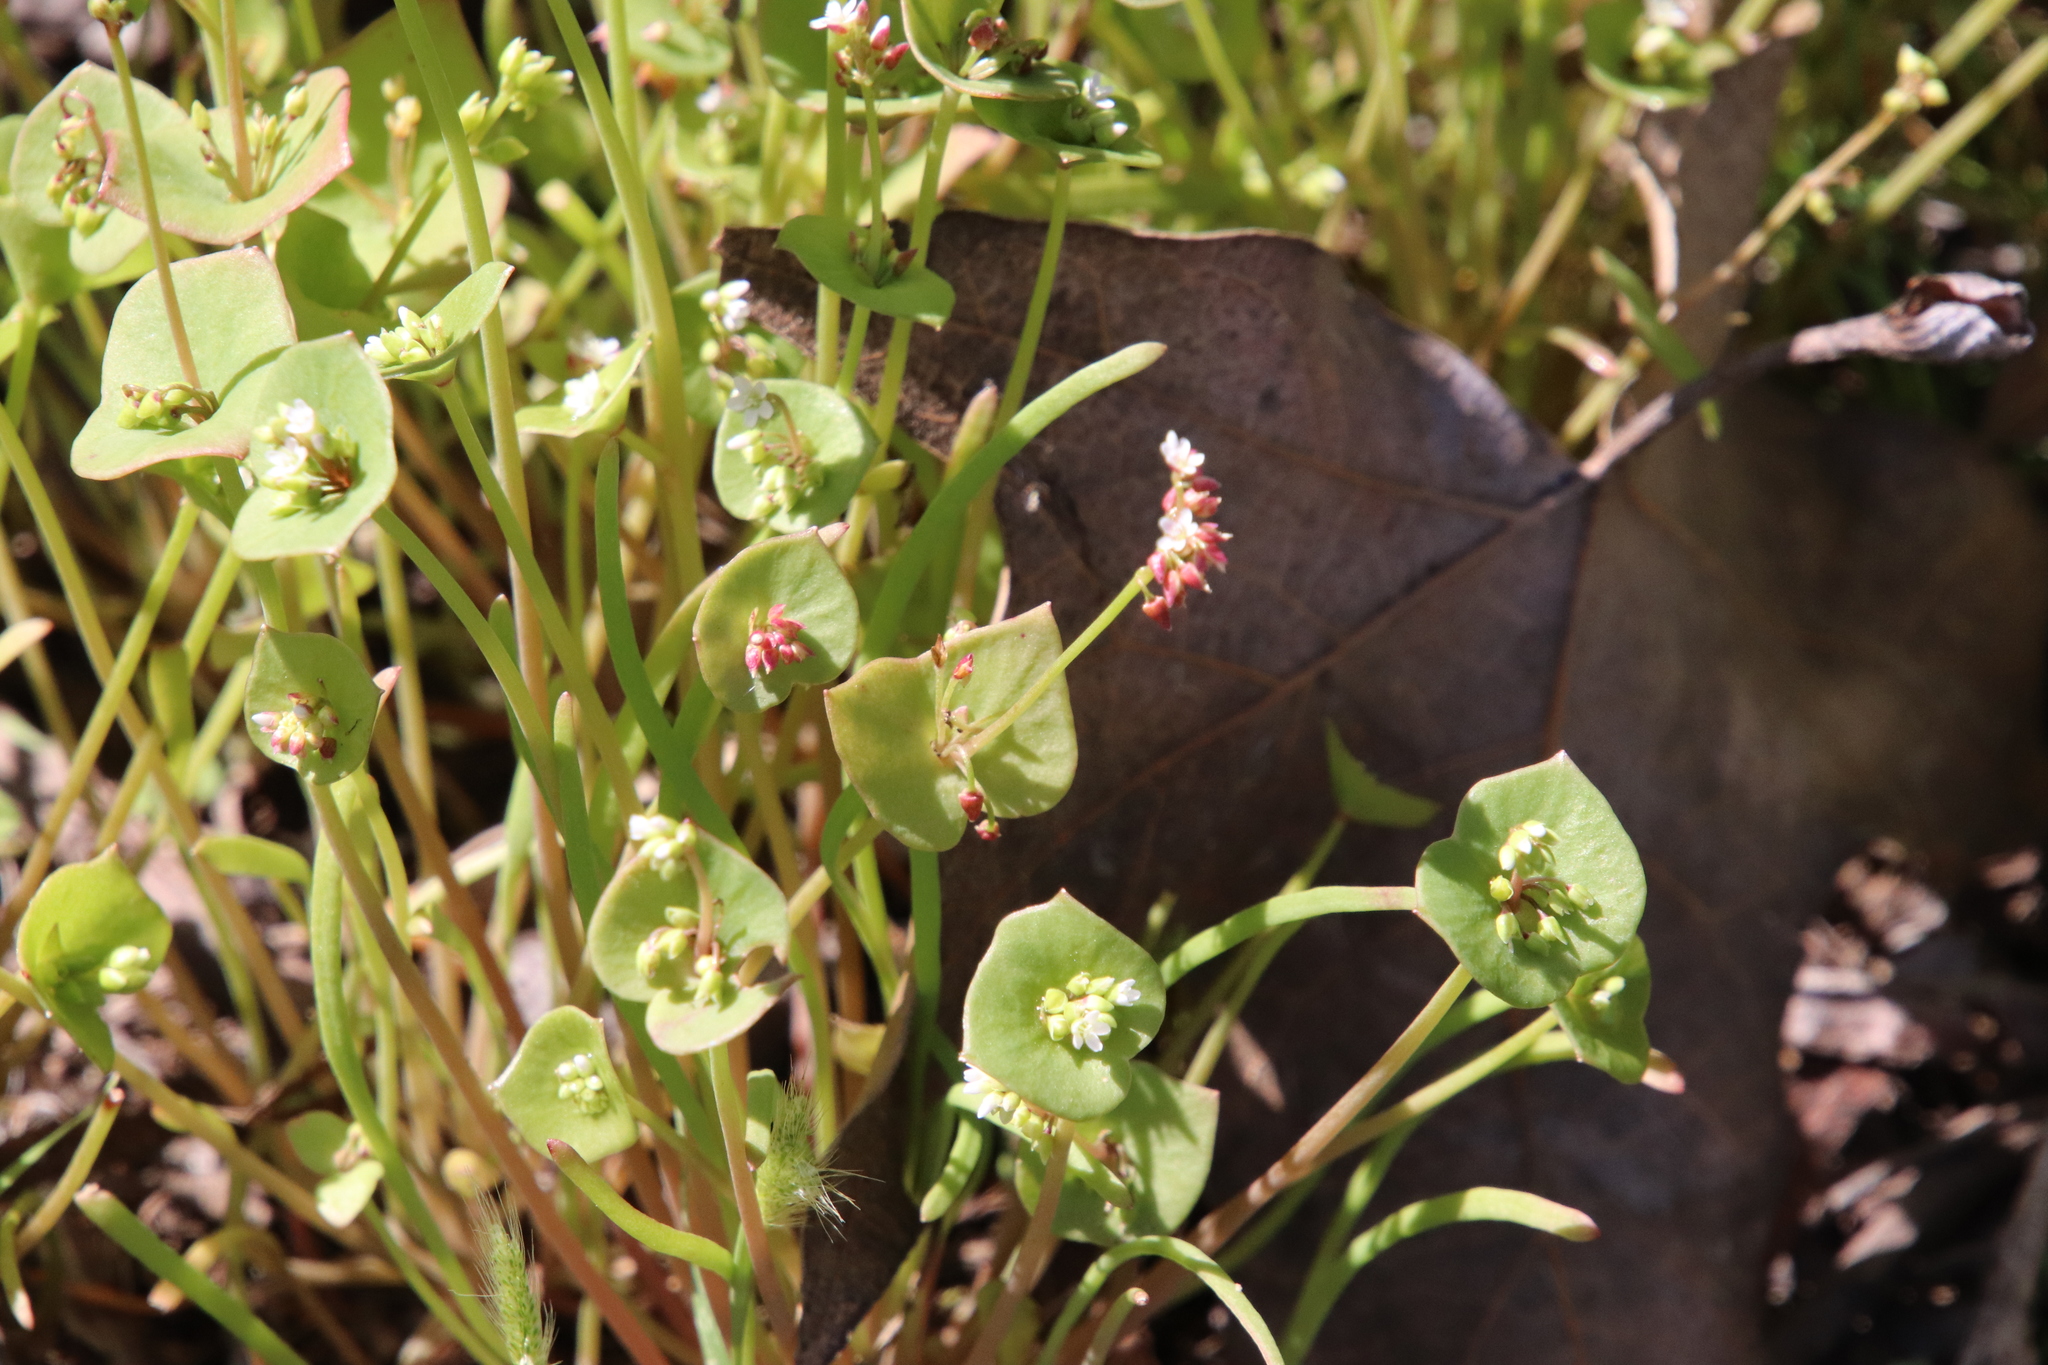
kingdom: Plantae
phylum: Tracheophyta
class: Magnoliopsida
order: Caryophyllales
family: Montiaceae
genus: Claytonia
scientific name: Claytonia parviflora
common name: Indian-lettuce
